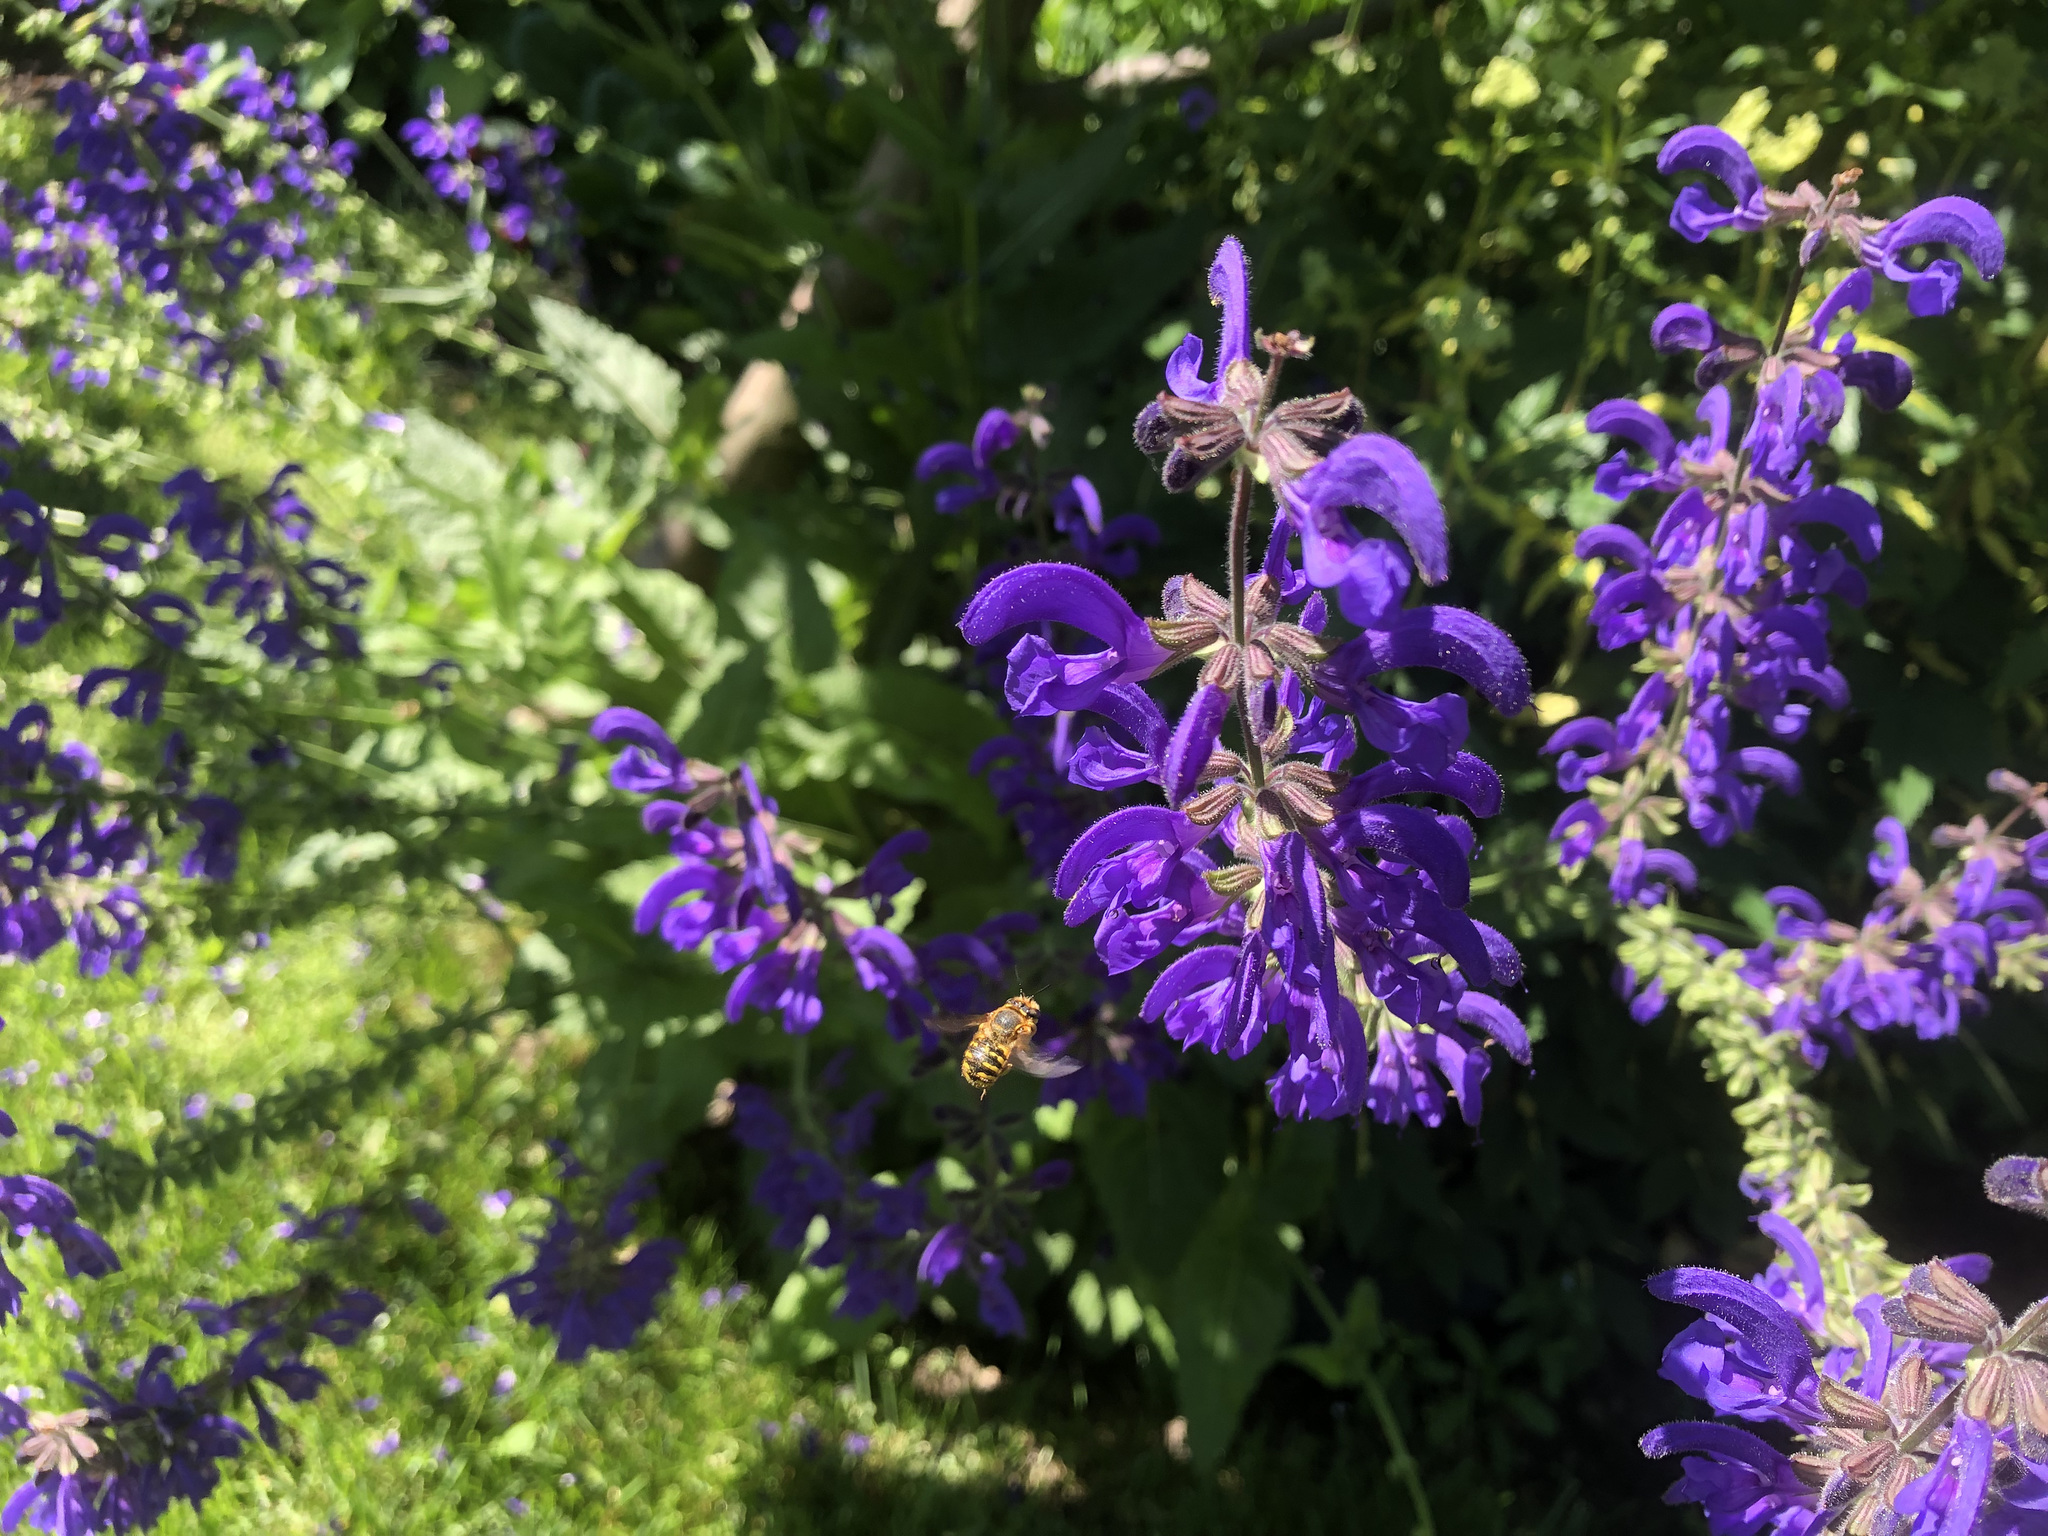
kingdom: Animalia
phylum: Arthropoda
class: Insecta
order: Hymenoptera
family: Megachilidae
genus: Anthidium
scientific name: Anthidium manicatum
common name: Wool carder bee
